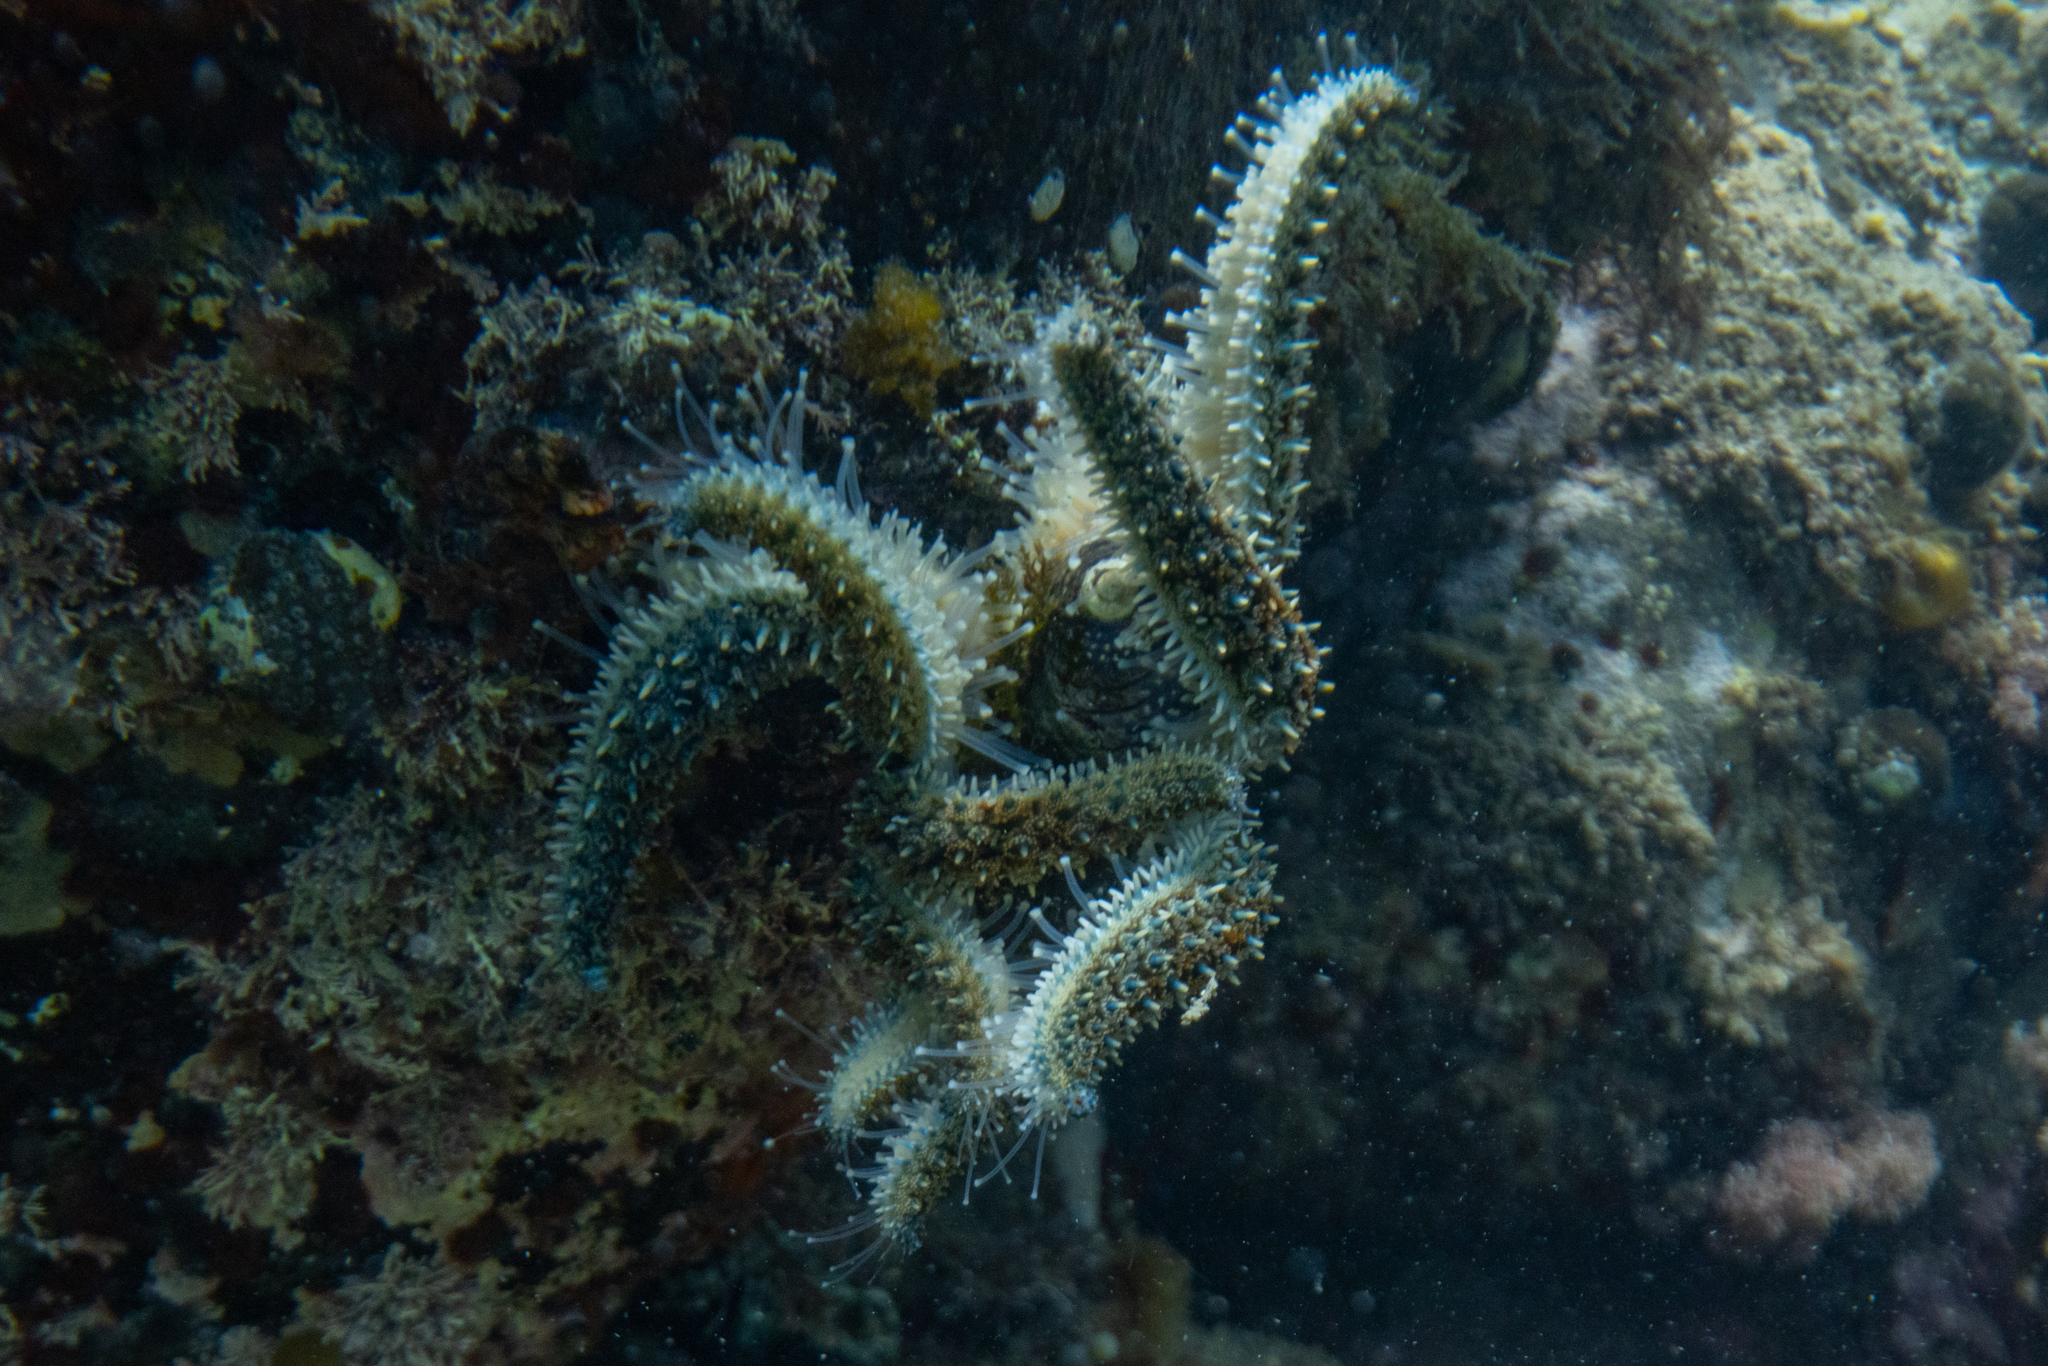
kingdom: Animalia
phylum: Echinodermata
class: Asteroidea
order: Forcipulatida
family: Asteriidae
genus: Coscinasterias
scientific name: Coscinasterias muricata
